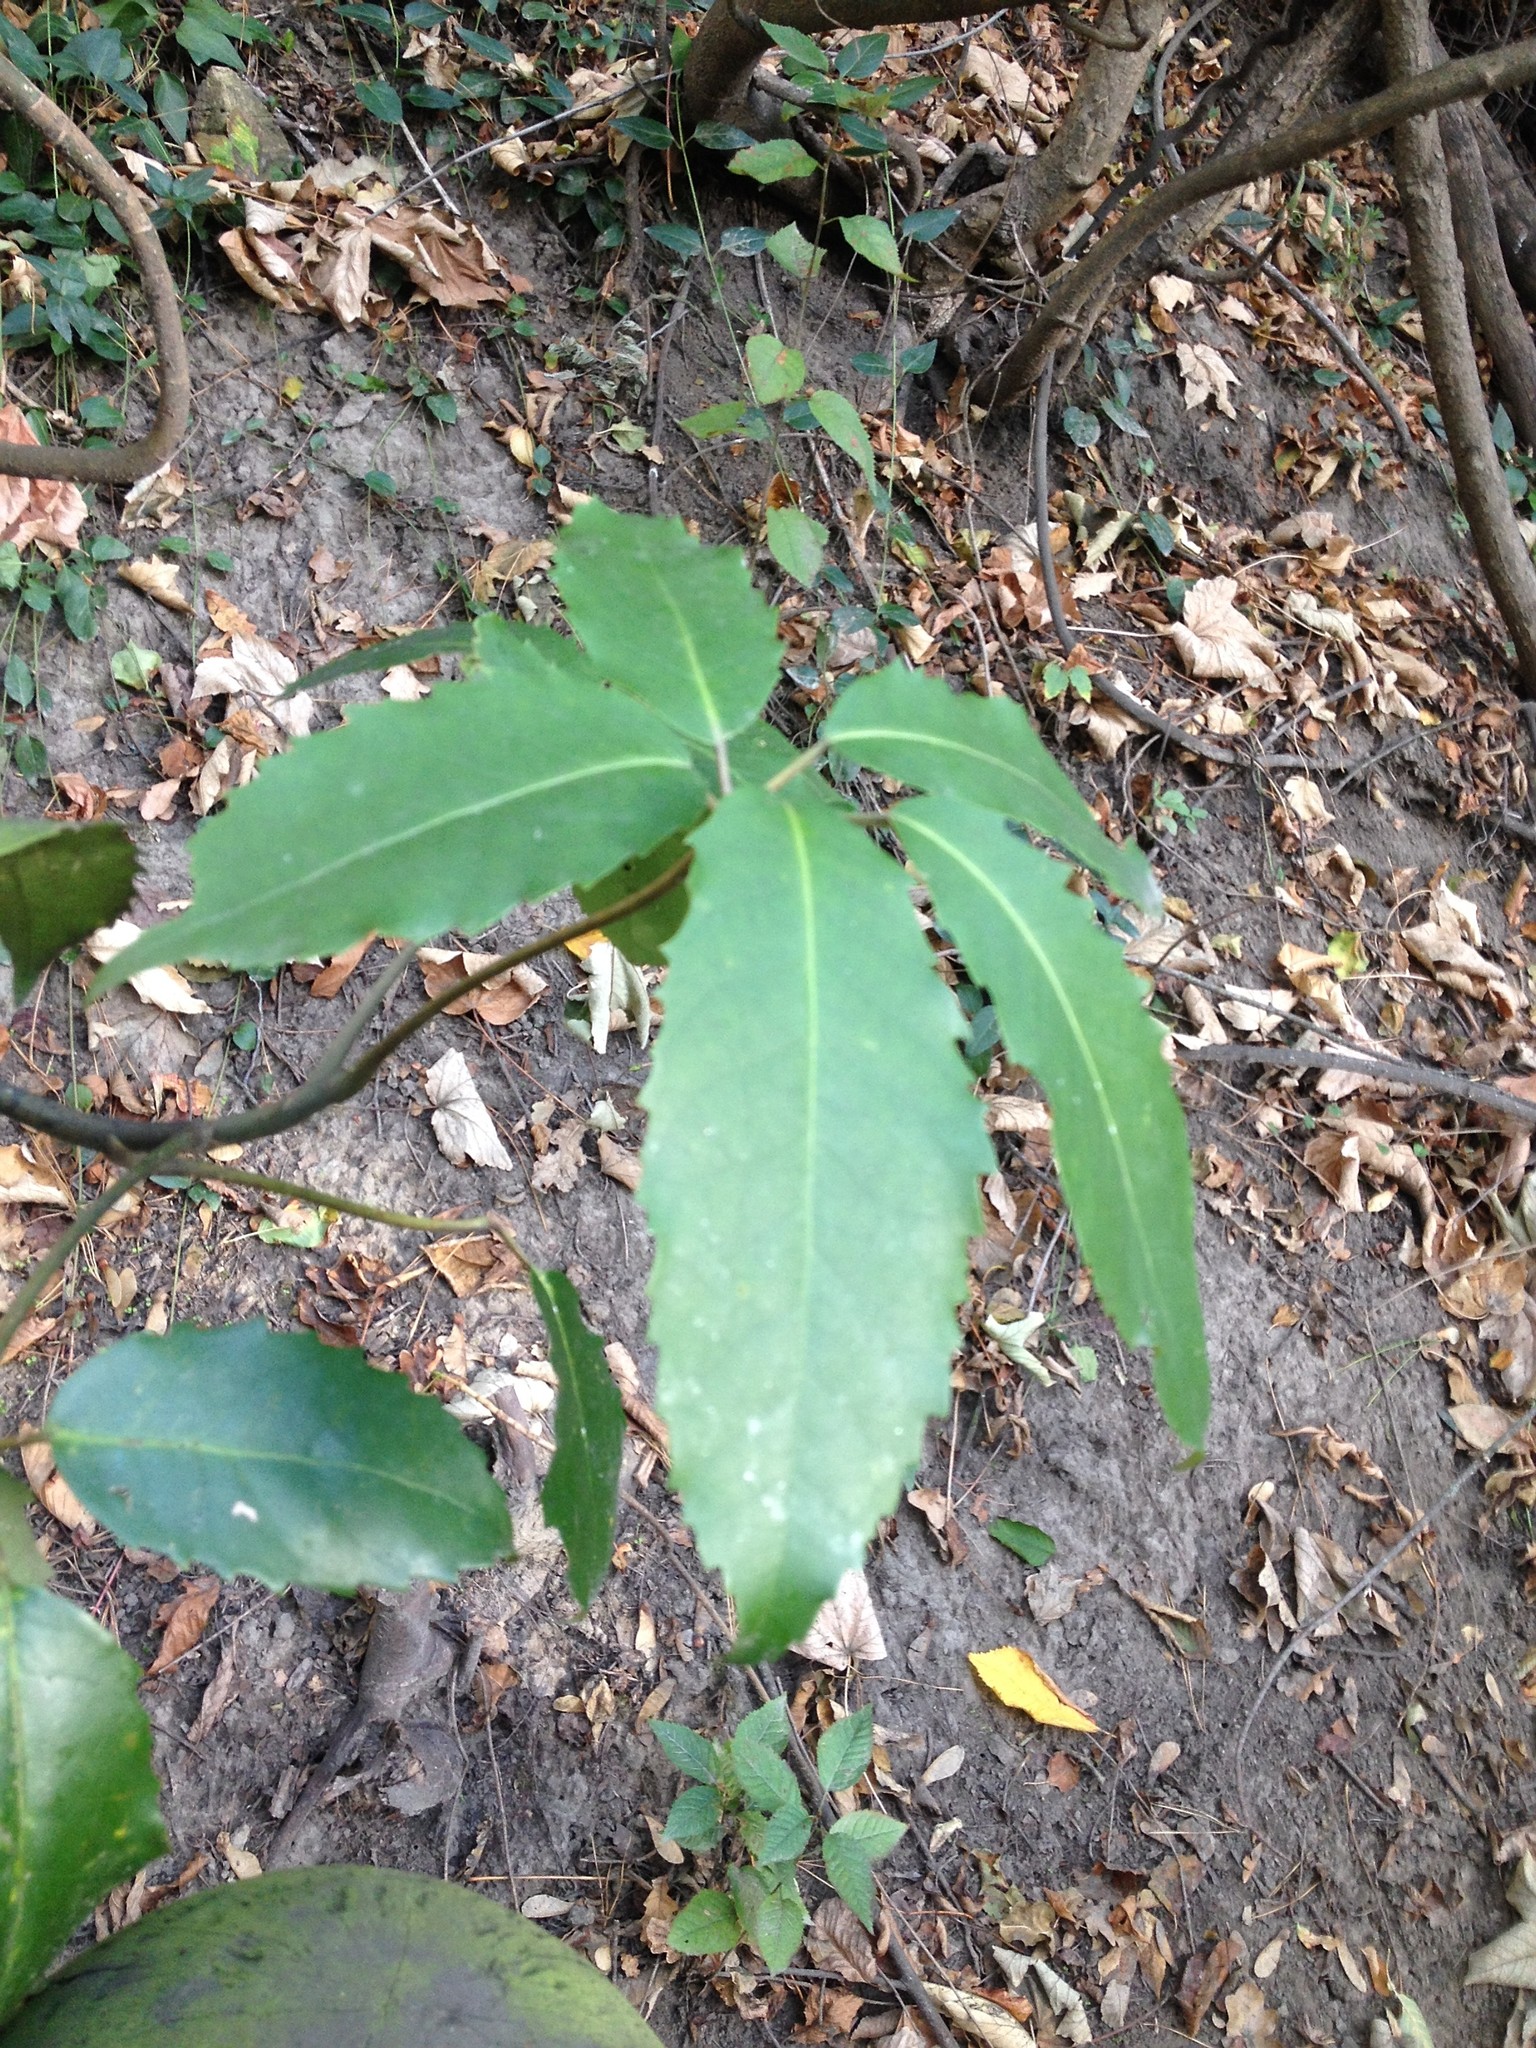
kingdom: Plantae
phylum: Tracheophyta
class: Magnoliopsida
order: Apiales
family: Araliaceae
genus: Neopanax
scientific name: Neopanax arboreus
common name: Five-fingers
